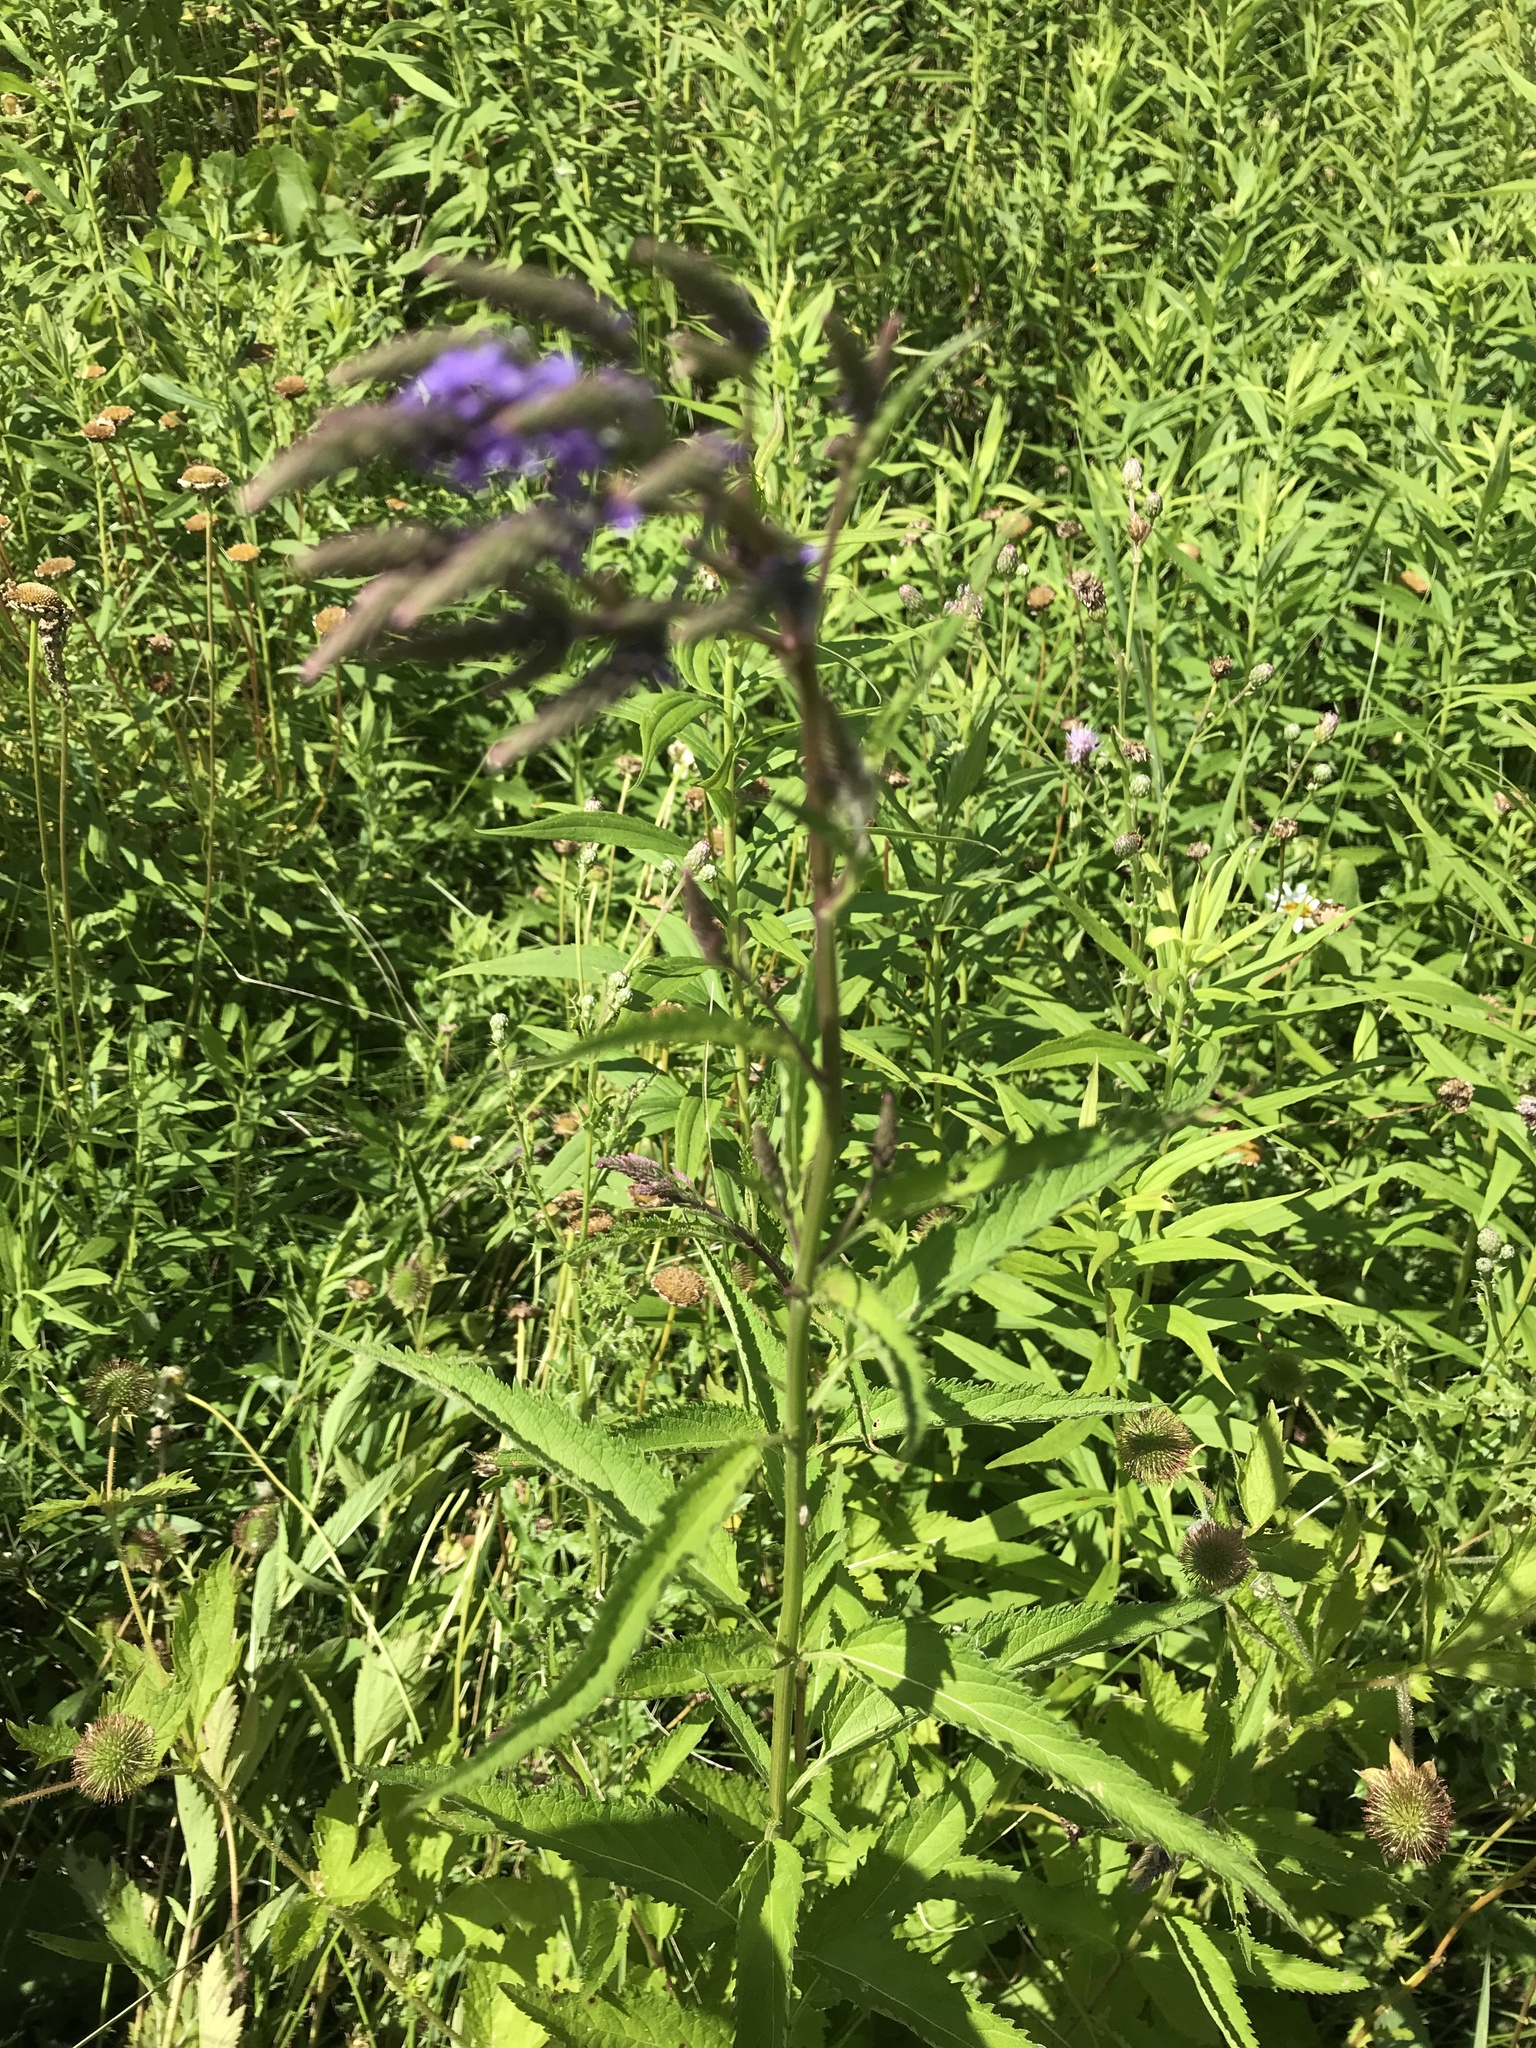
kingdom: Plantae
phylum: Tracheophyta
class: Magnoliopsida
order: Lamiales
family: Verbenaceae
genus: Verbena
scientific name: Verbena hastata
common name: American blue vervain
